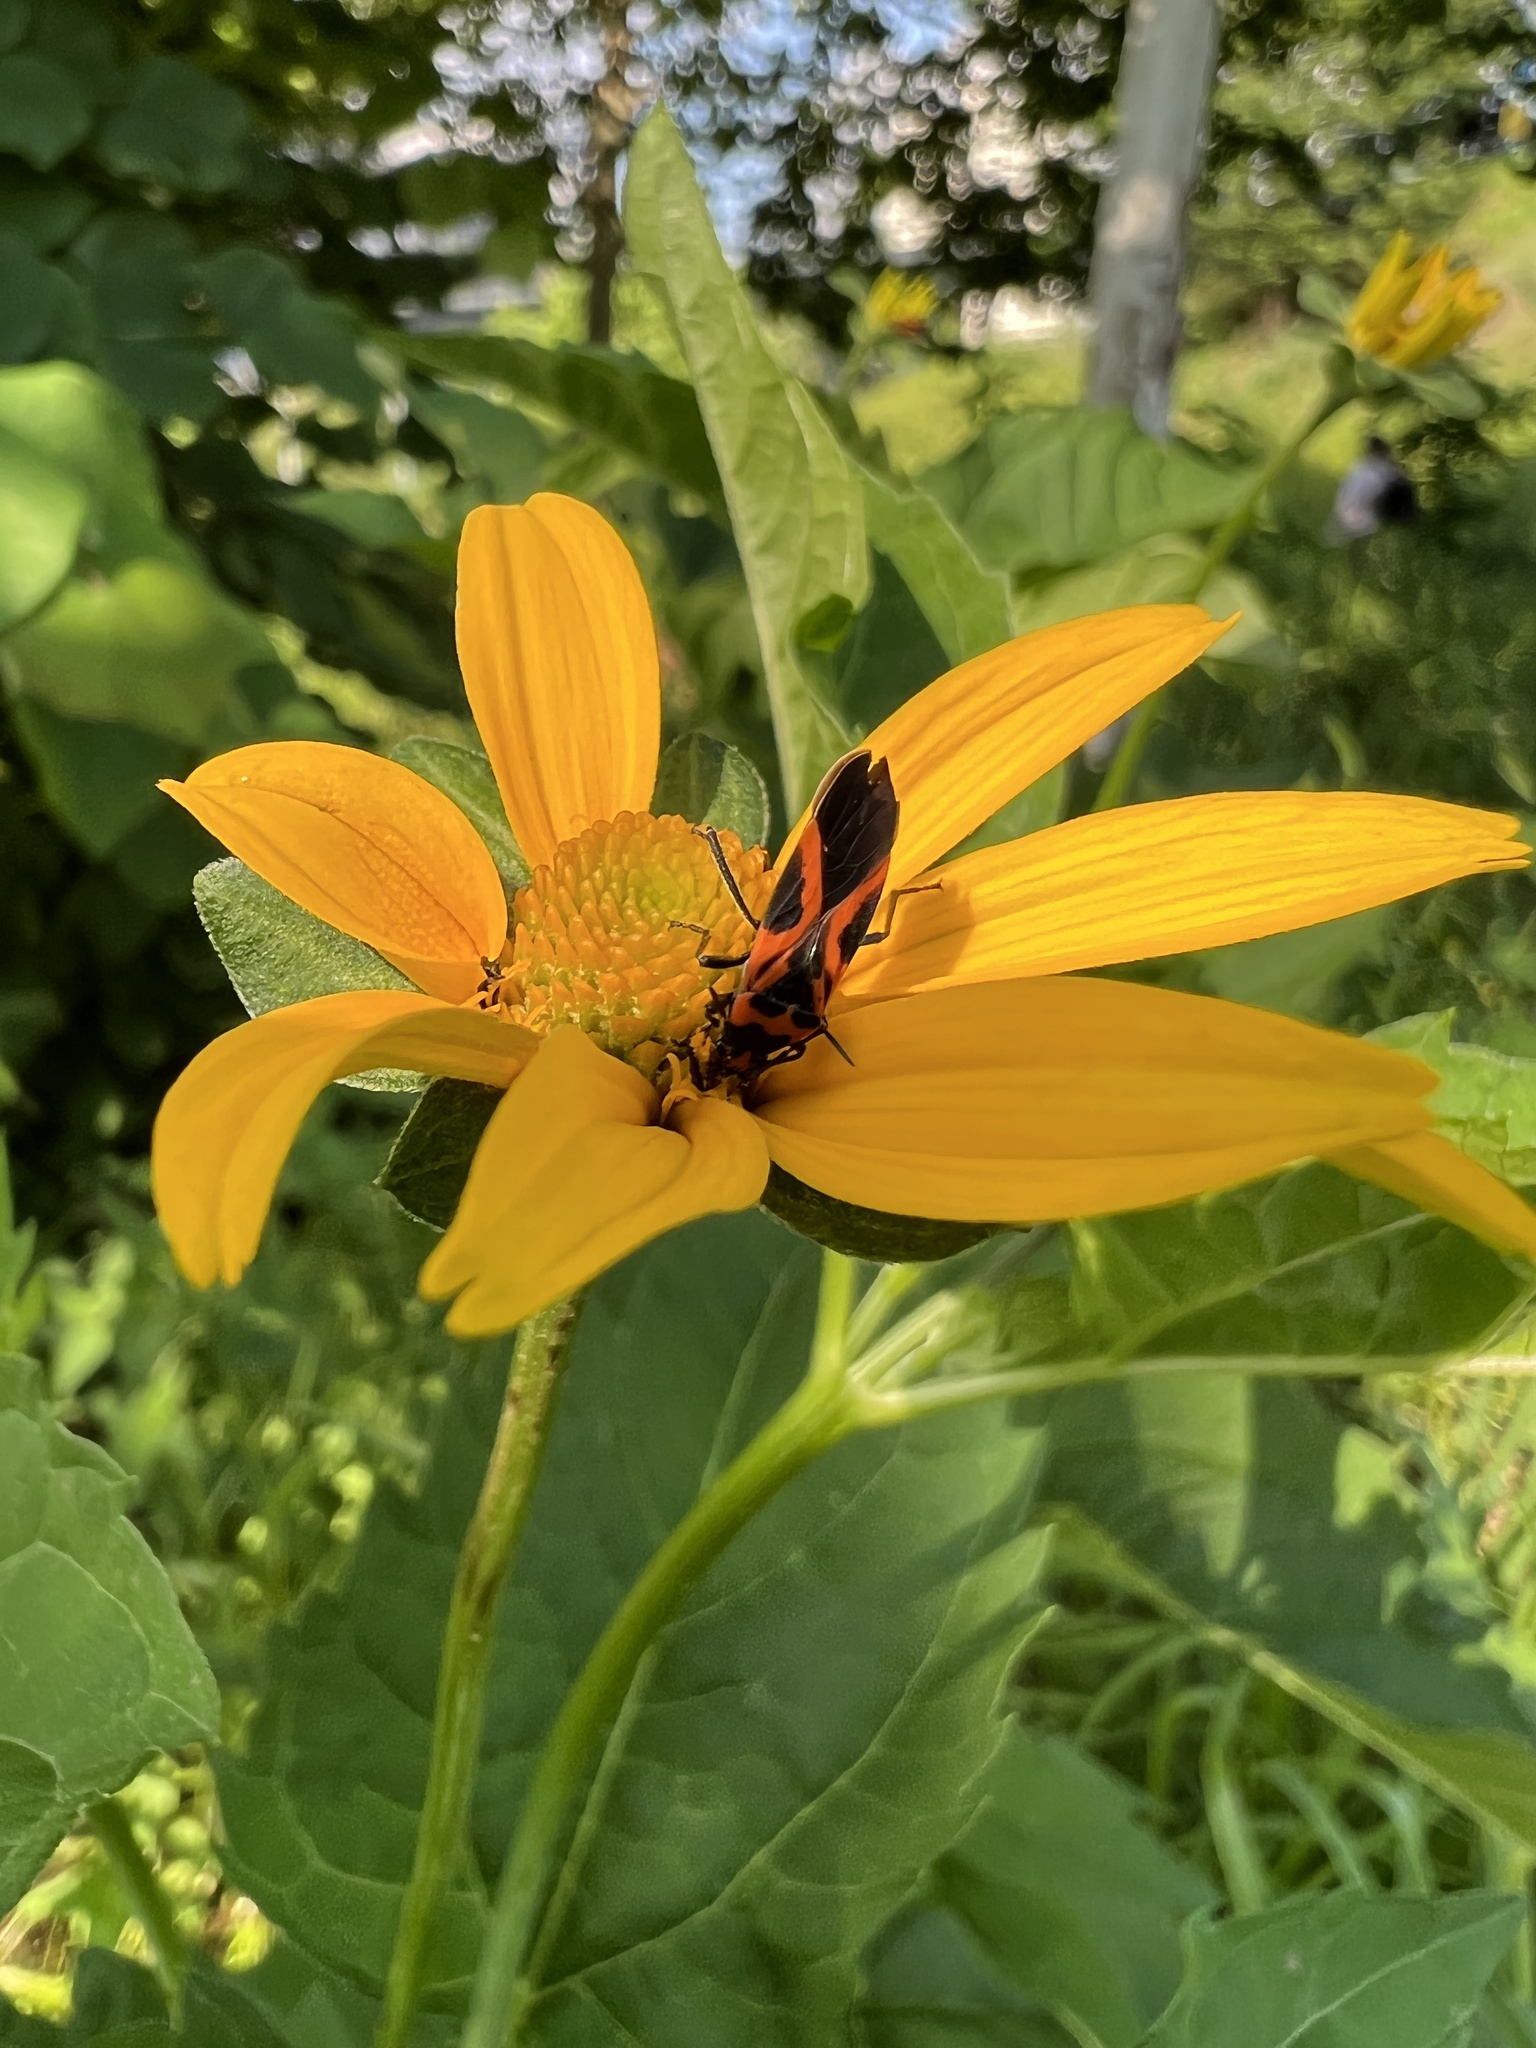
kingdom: Animalia
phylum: Arthropoda
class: Insecta
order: Hemiptera
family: Lygaeidae
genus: Lygaeus
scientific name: Lygaeus turcicus
